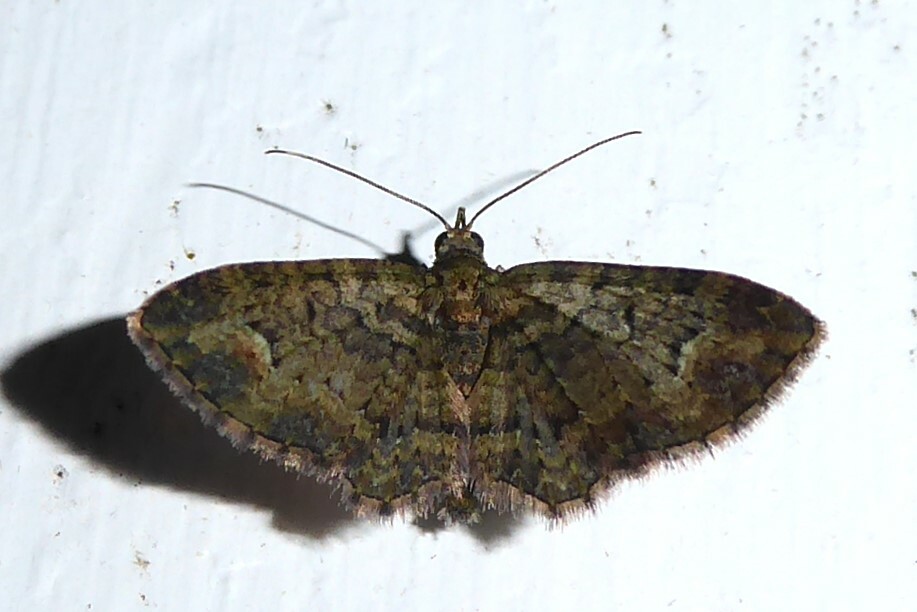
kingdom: Animalia
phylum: Arthropoda
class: Insecta
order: Lepidoptera
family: Geometridae
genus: Pasiphilodes
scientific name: Pasiphilodes testulata
